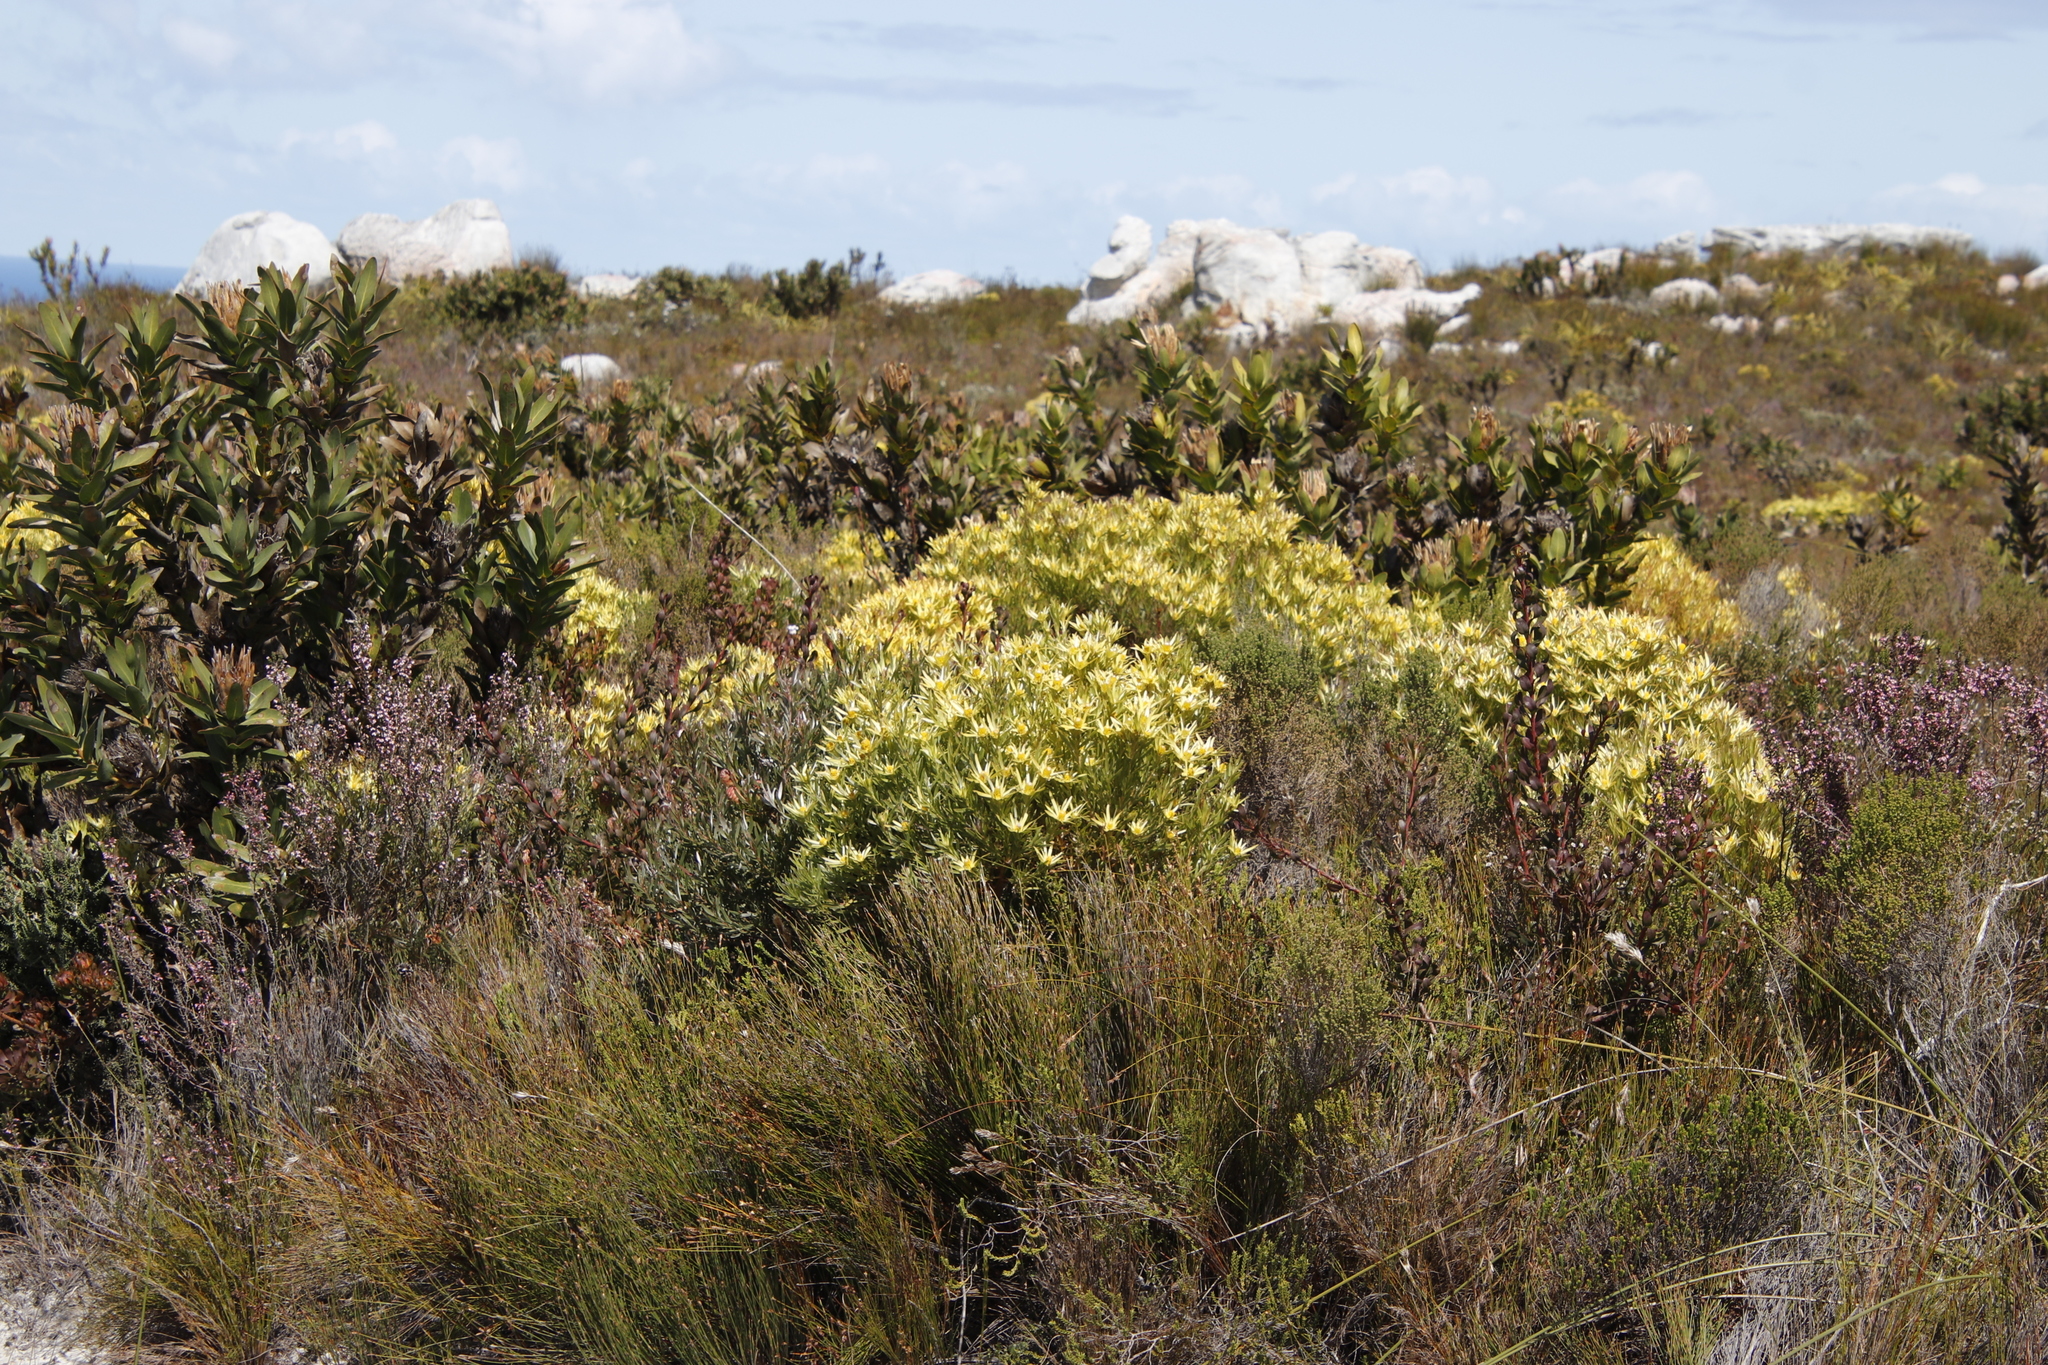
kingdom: Plantae
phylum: Tracheophyta
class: Magnoliopsida
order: Proteales
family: Proteaceae
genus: Leucadendron
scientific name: Leucadendron xanthoconus
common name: Sickle-leaf conebush
